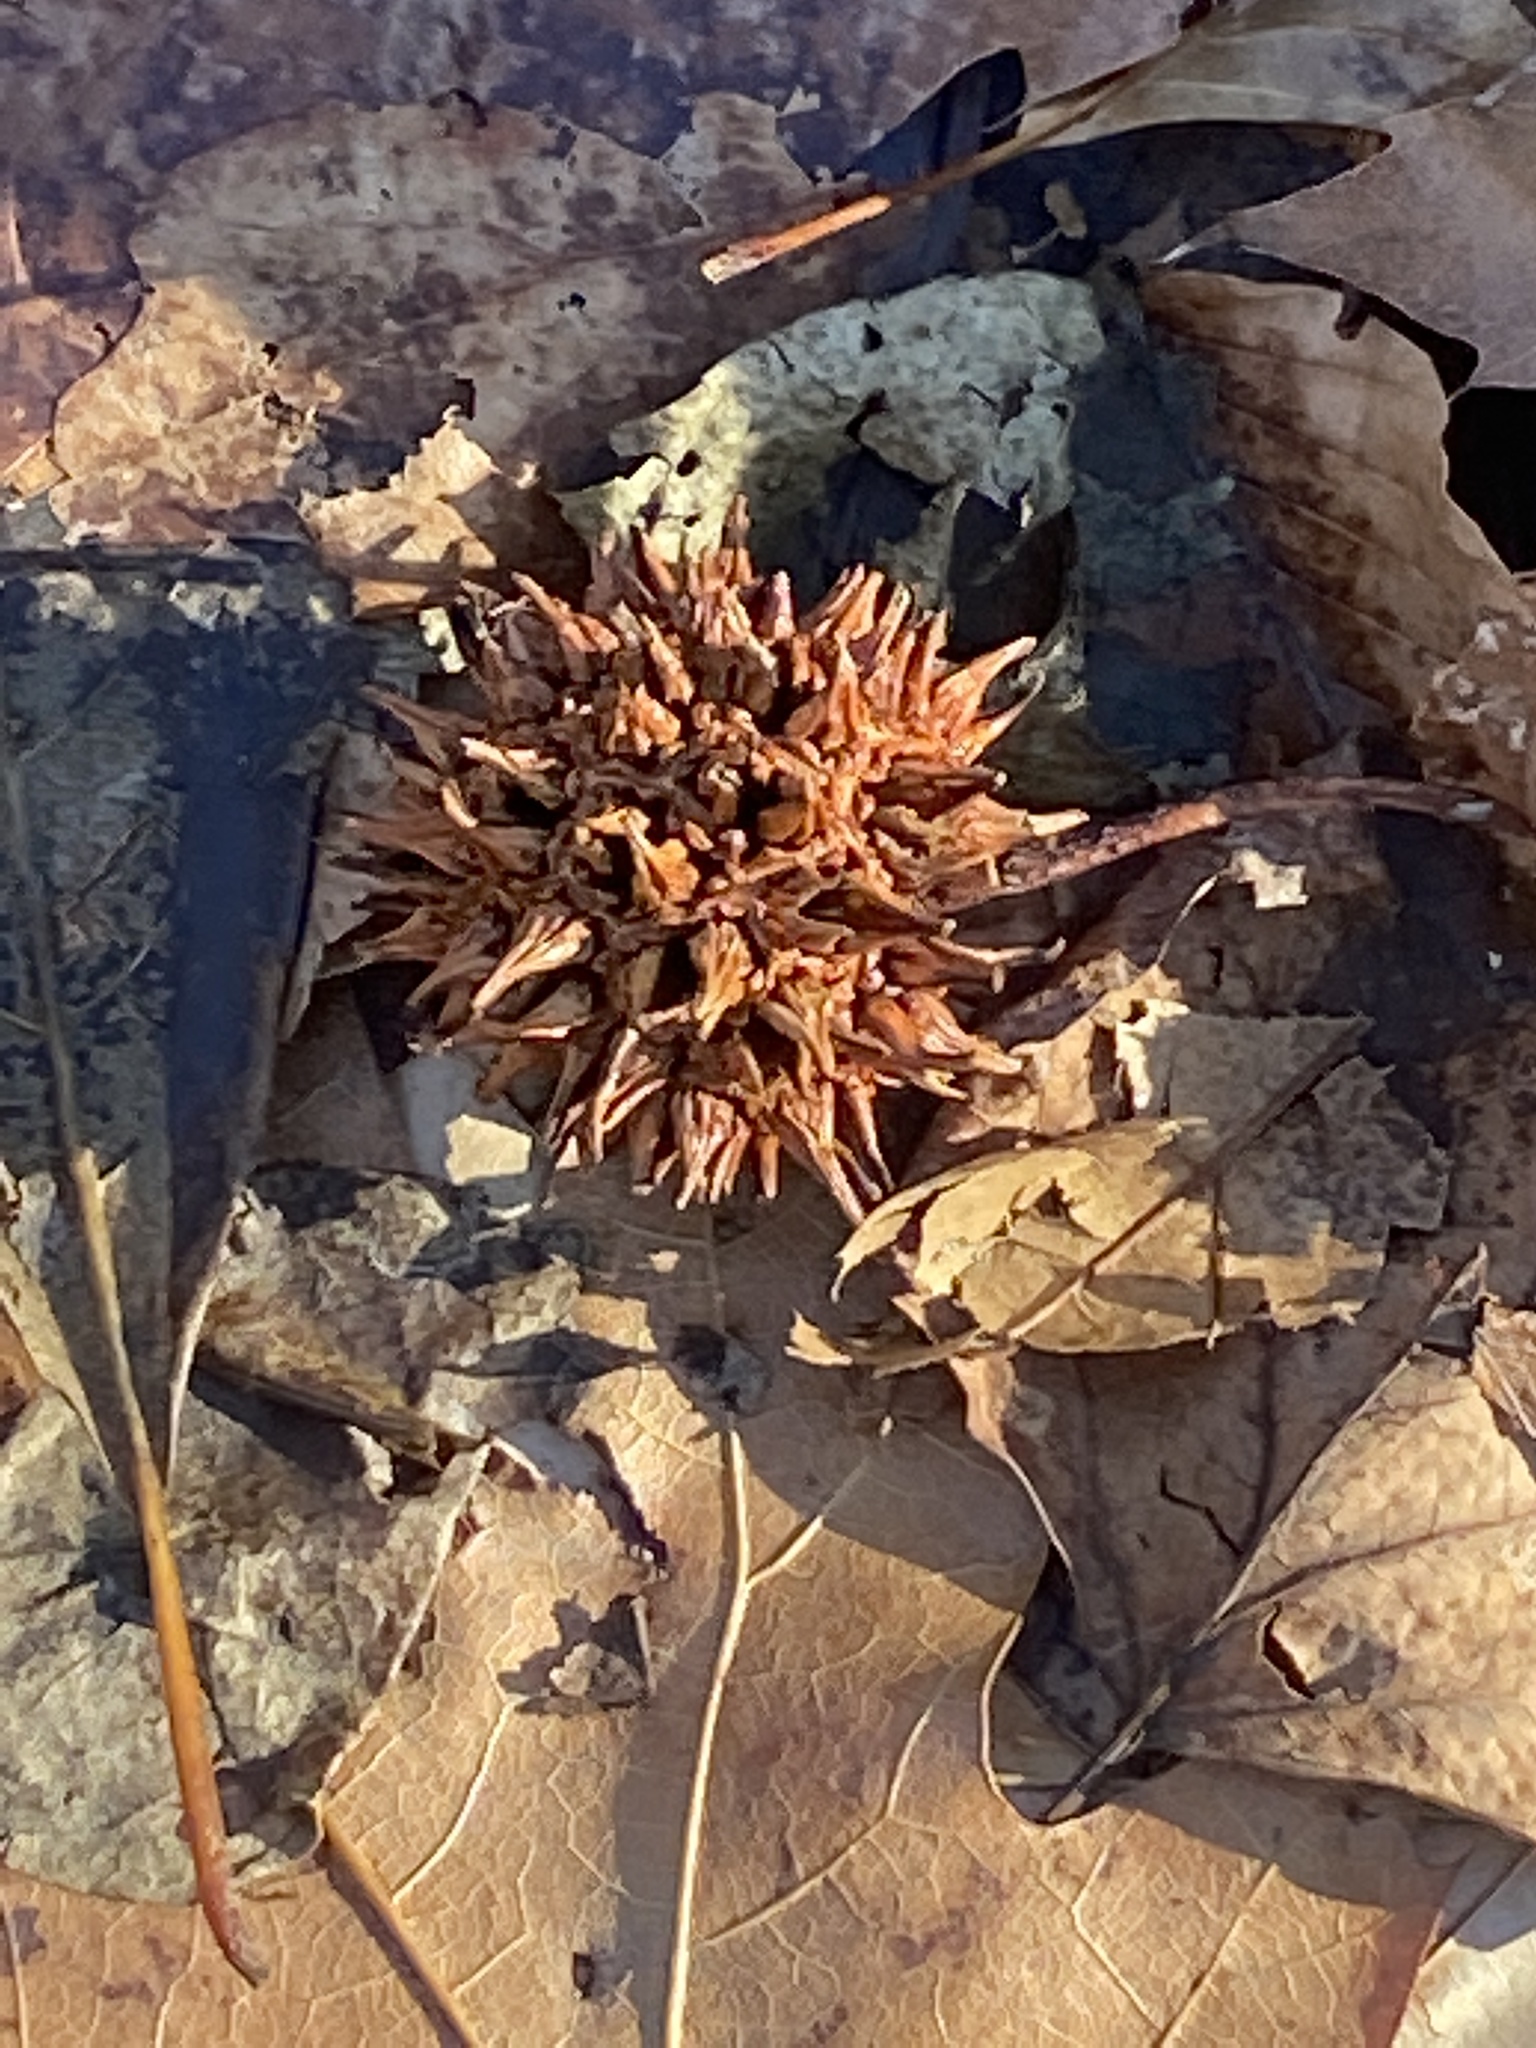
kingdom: Plantae
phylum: Tracheophyta
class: Magnoliopsida
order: Saxifragales
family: Altingiaceae
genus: Liquidambar
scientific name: Liquidambar styraciflua
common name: Sweet gum
